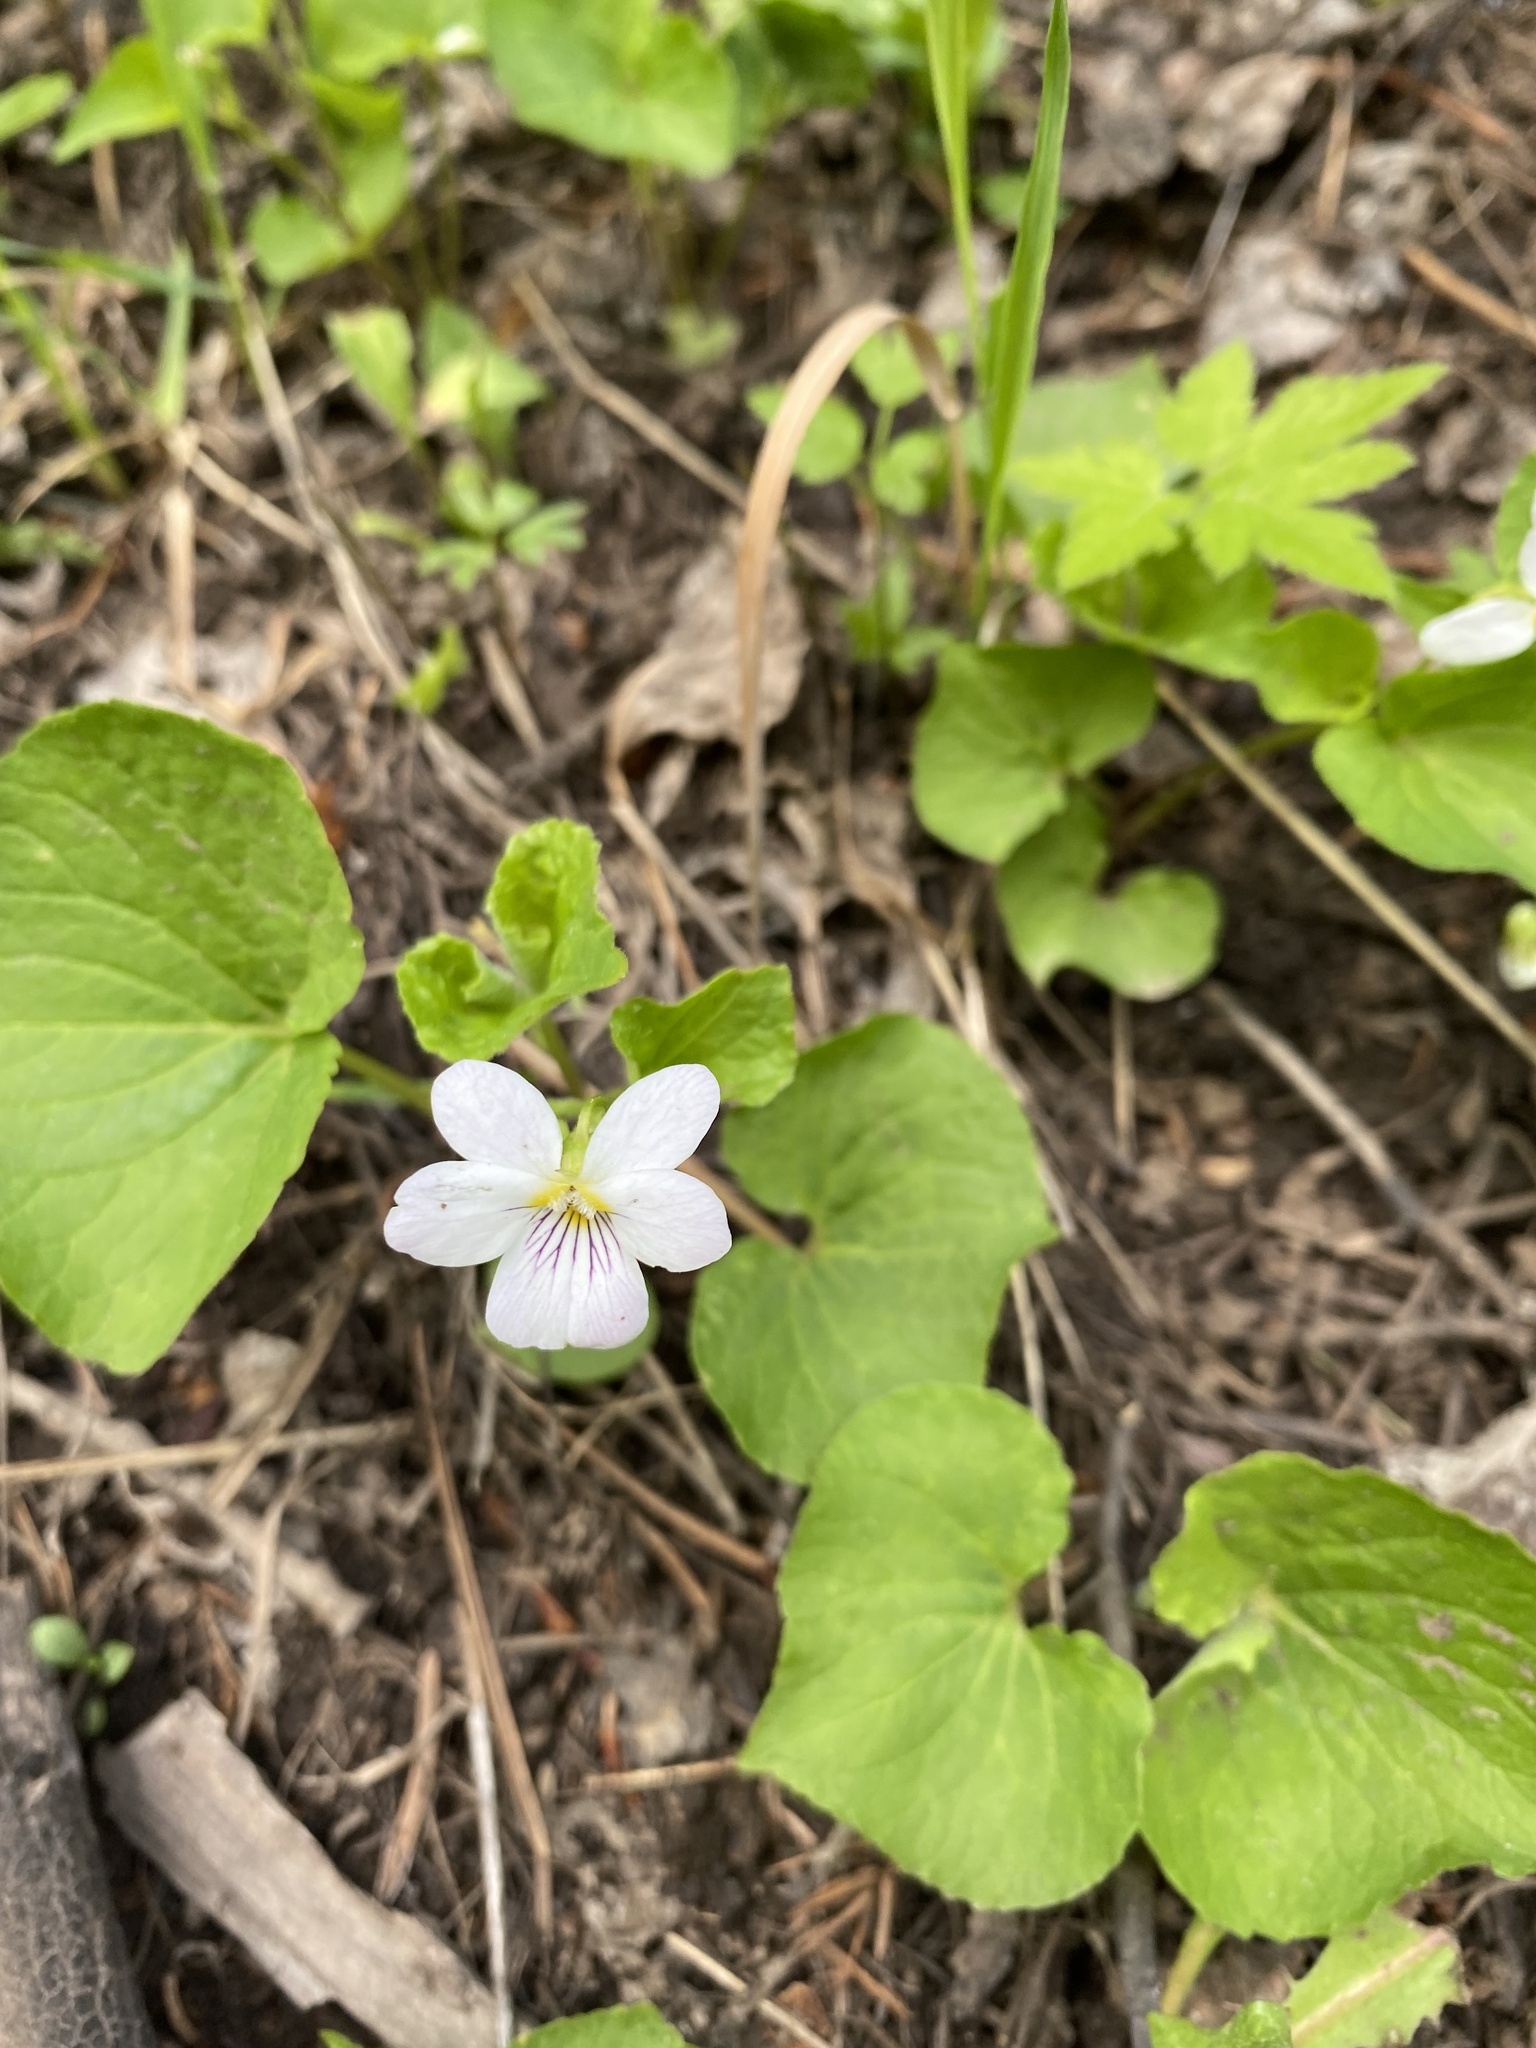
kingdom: Plantae
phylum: Tracheophyta
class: Magnoliopsida
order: Malpighiales
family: Violaceae
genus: Viola
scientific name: Viola canadensis
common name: Canada violet
